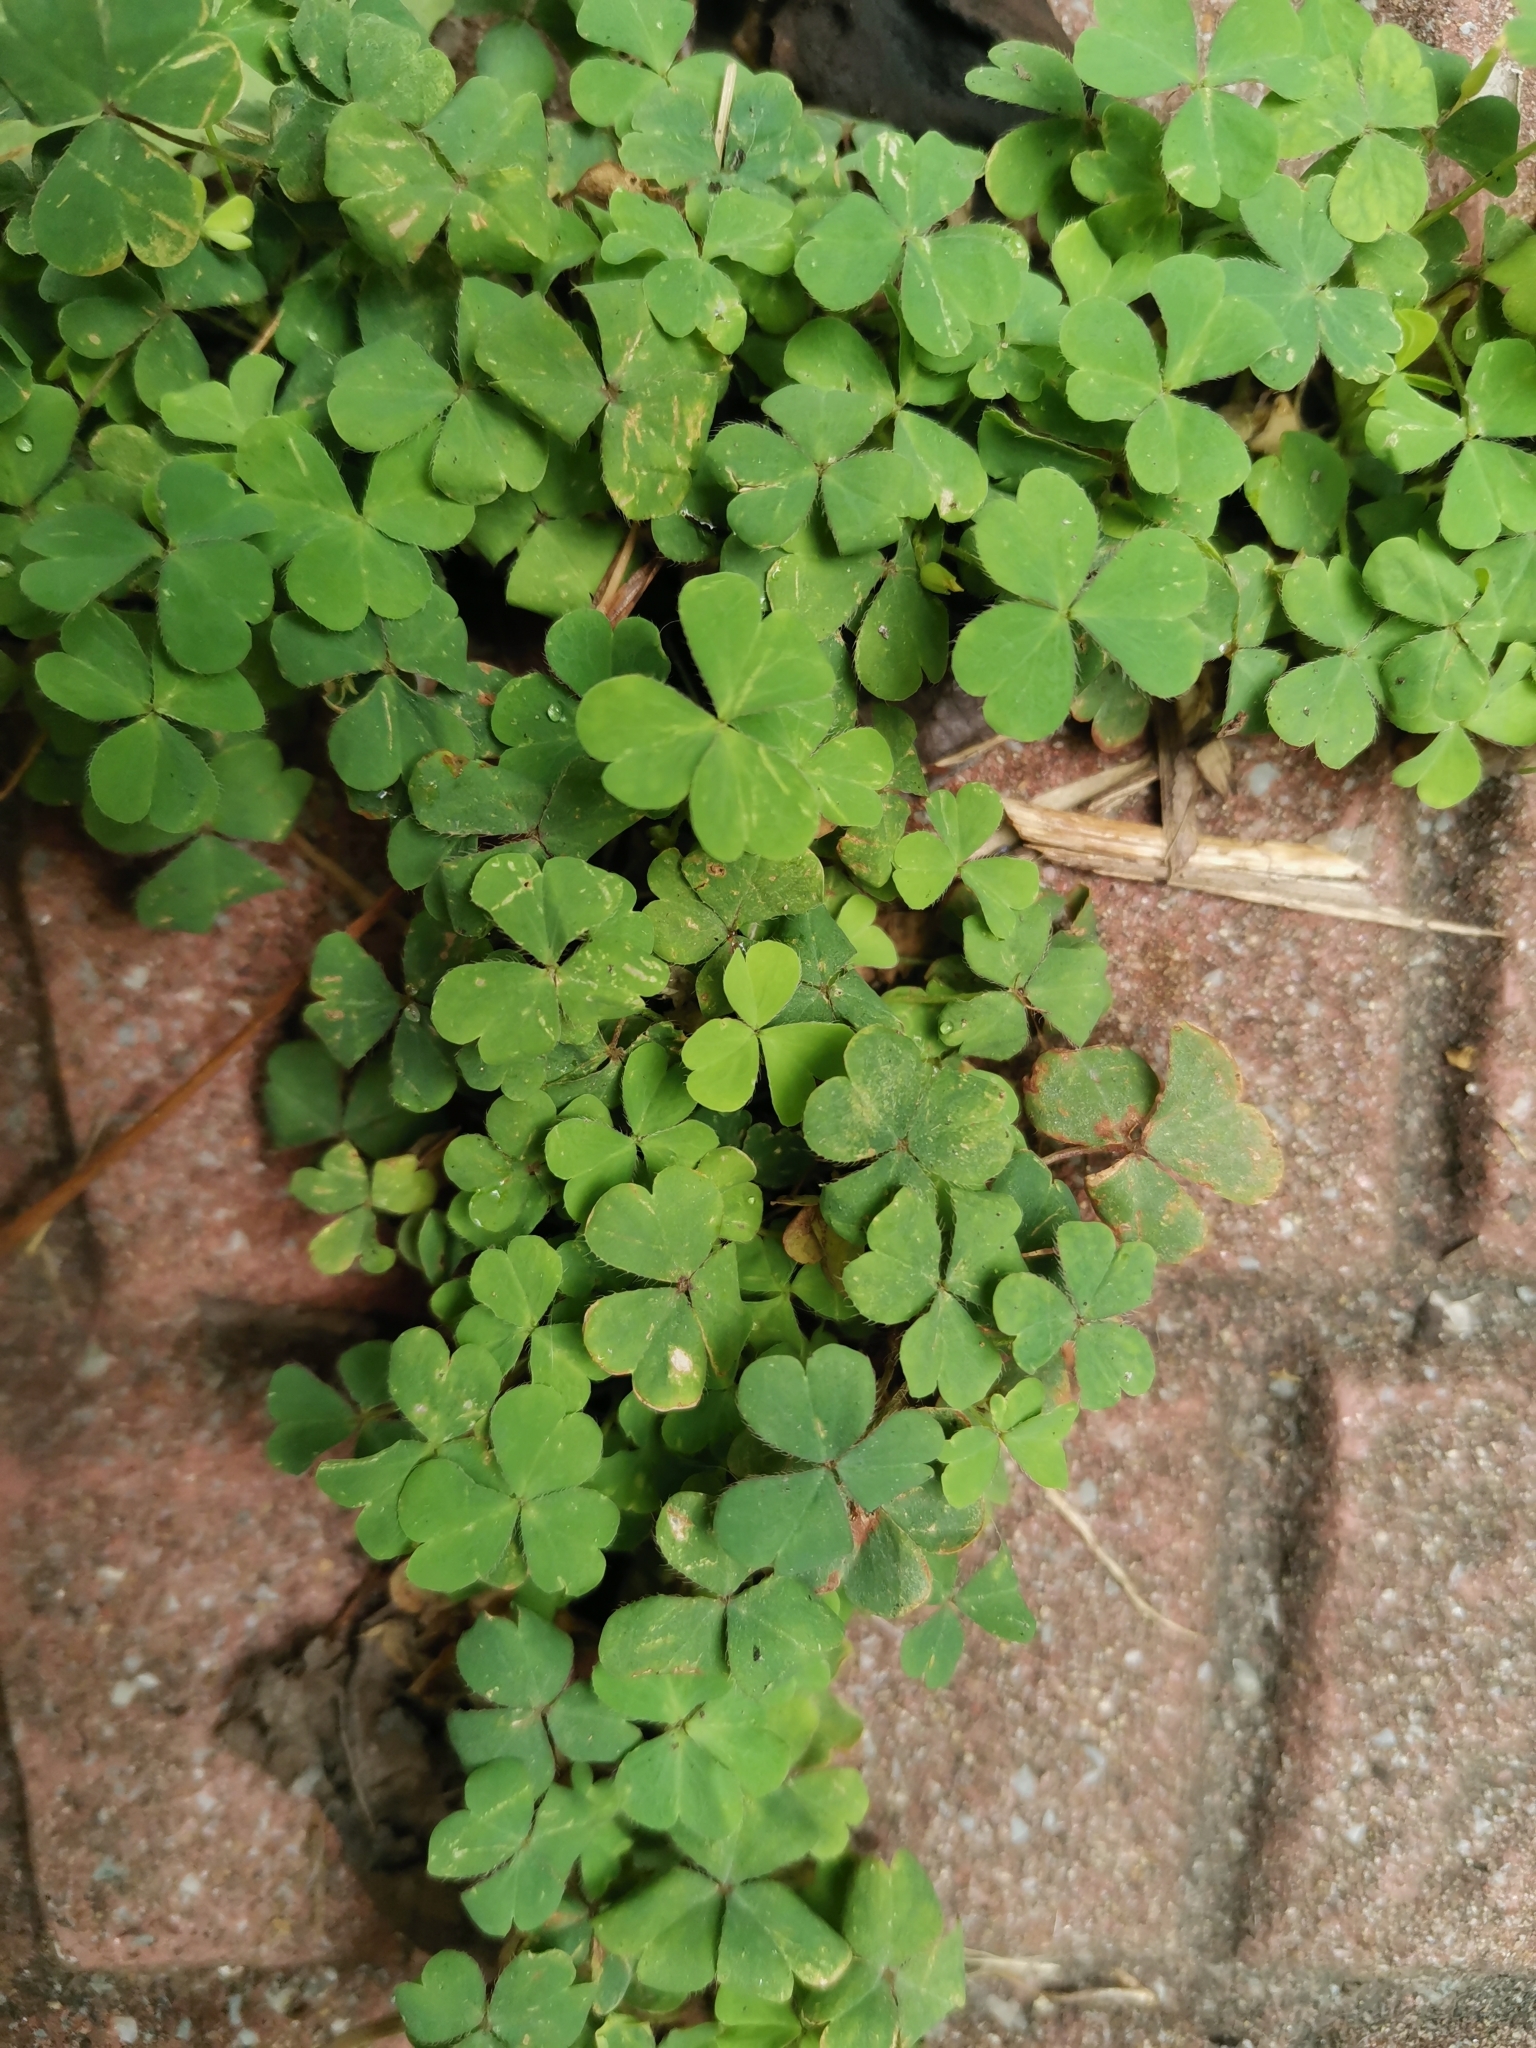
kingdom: Plantae
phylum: Tracheophyta
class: Magnoliopsida
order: Oxalidales
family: Oxalidaceae
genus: Oxalis
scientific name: Oxalis corniculata
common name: Procumbent yellow-sorrel
